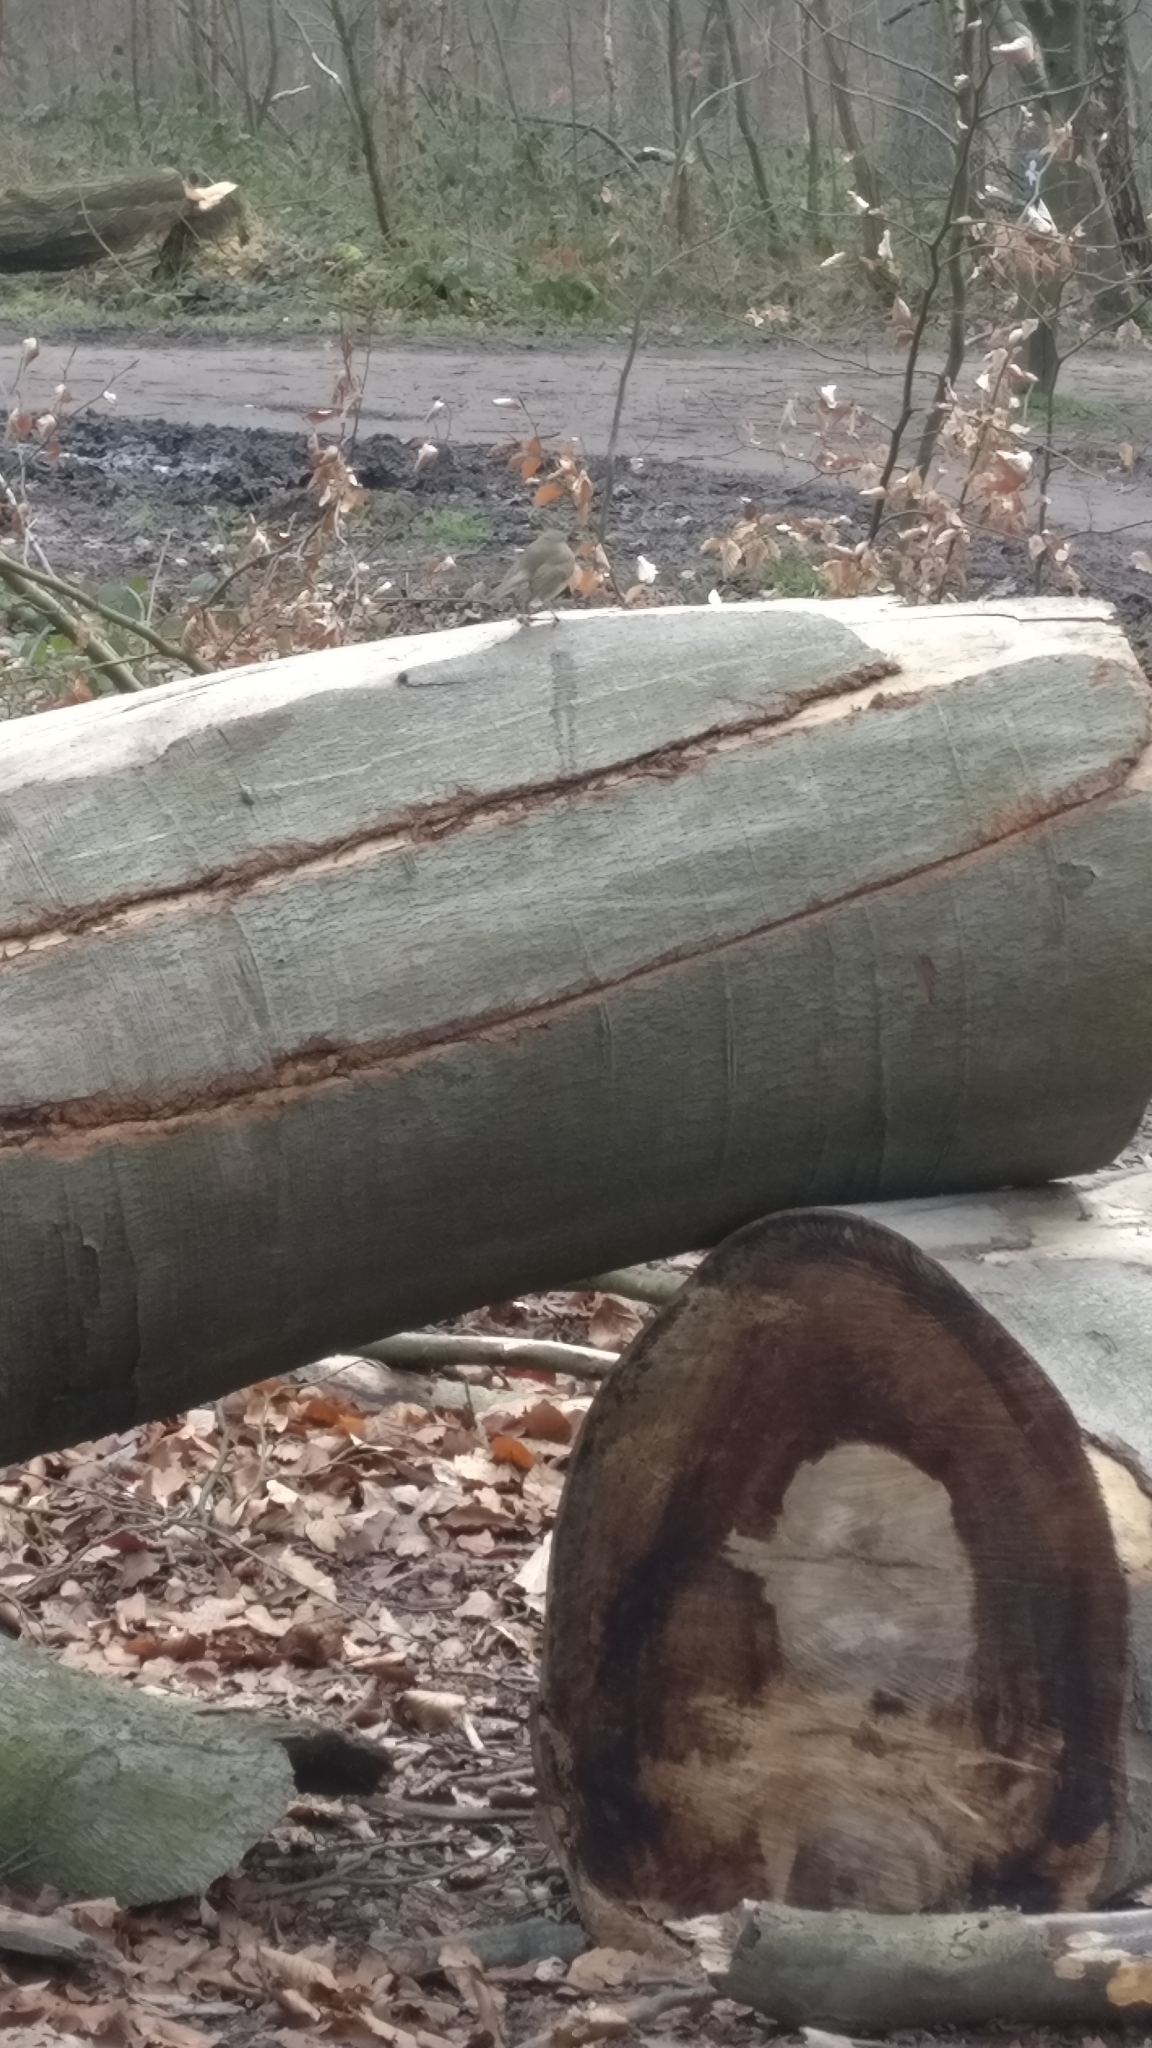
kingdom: Animalia
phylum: Chordata
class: Aves
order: Passeriformes
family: Muscicapidae
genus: Erithacus
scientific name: Erithacus rubecula
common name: European robin
